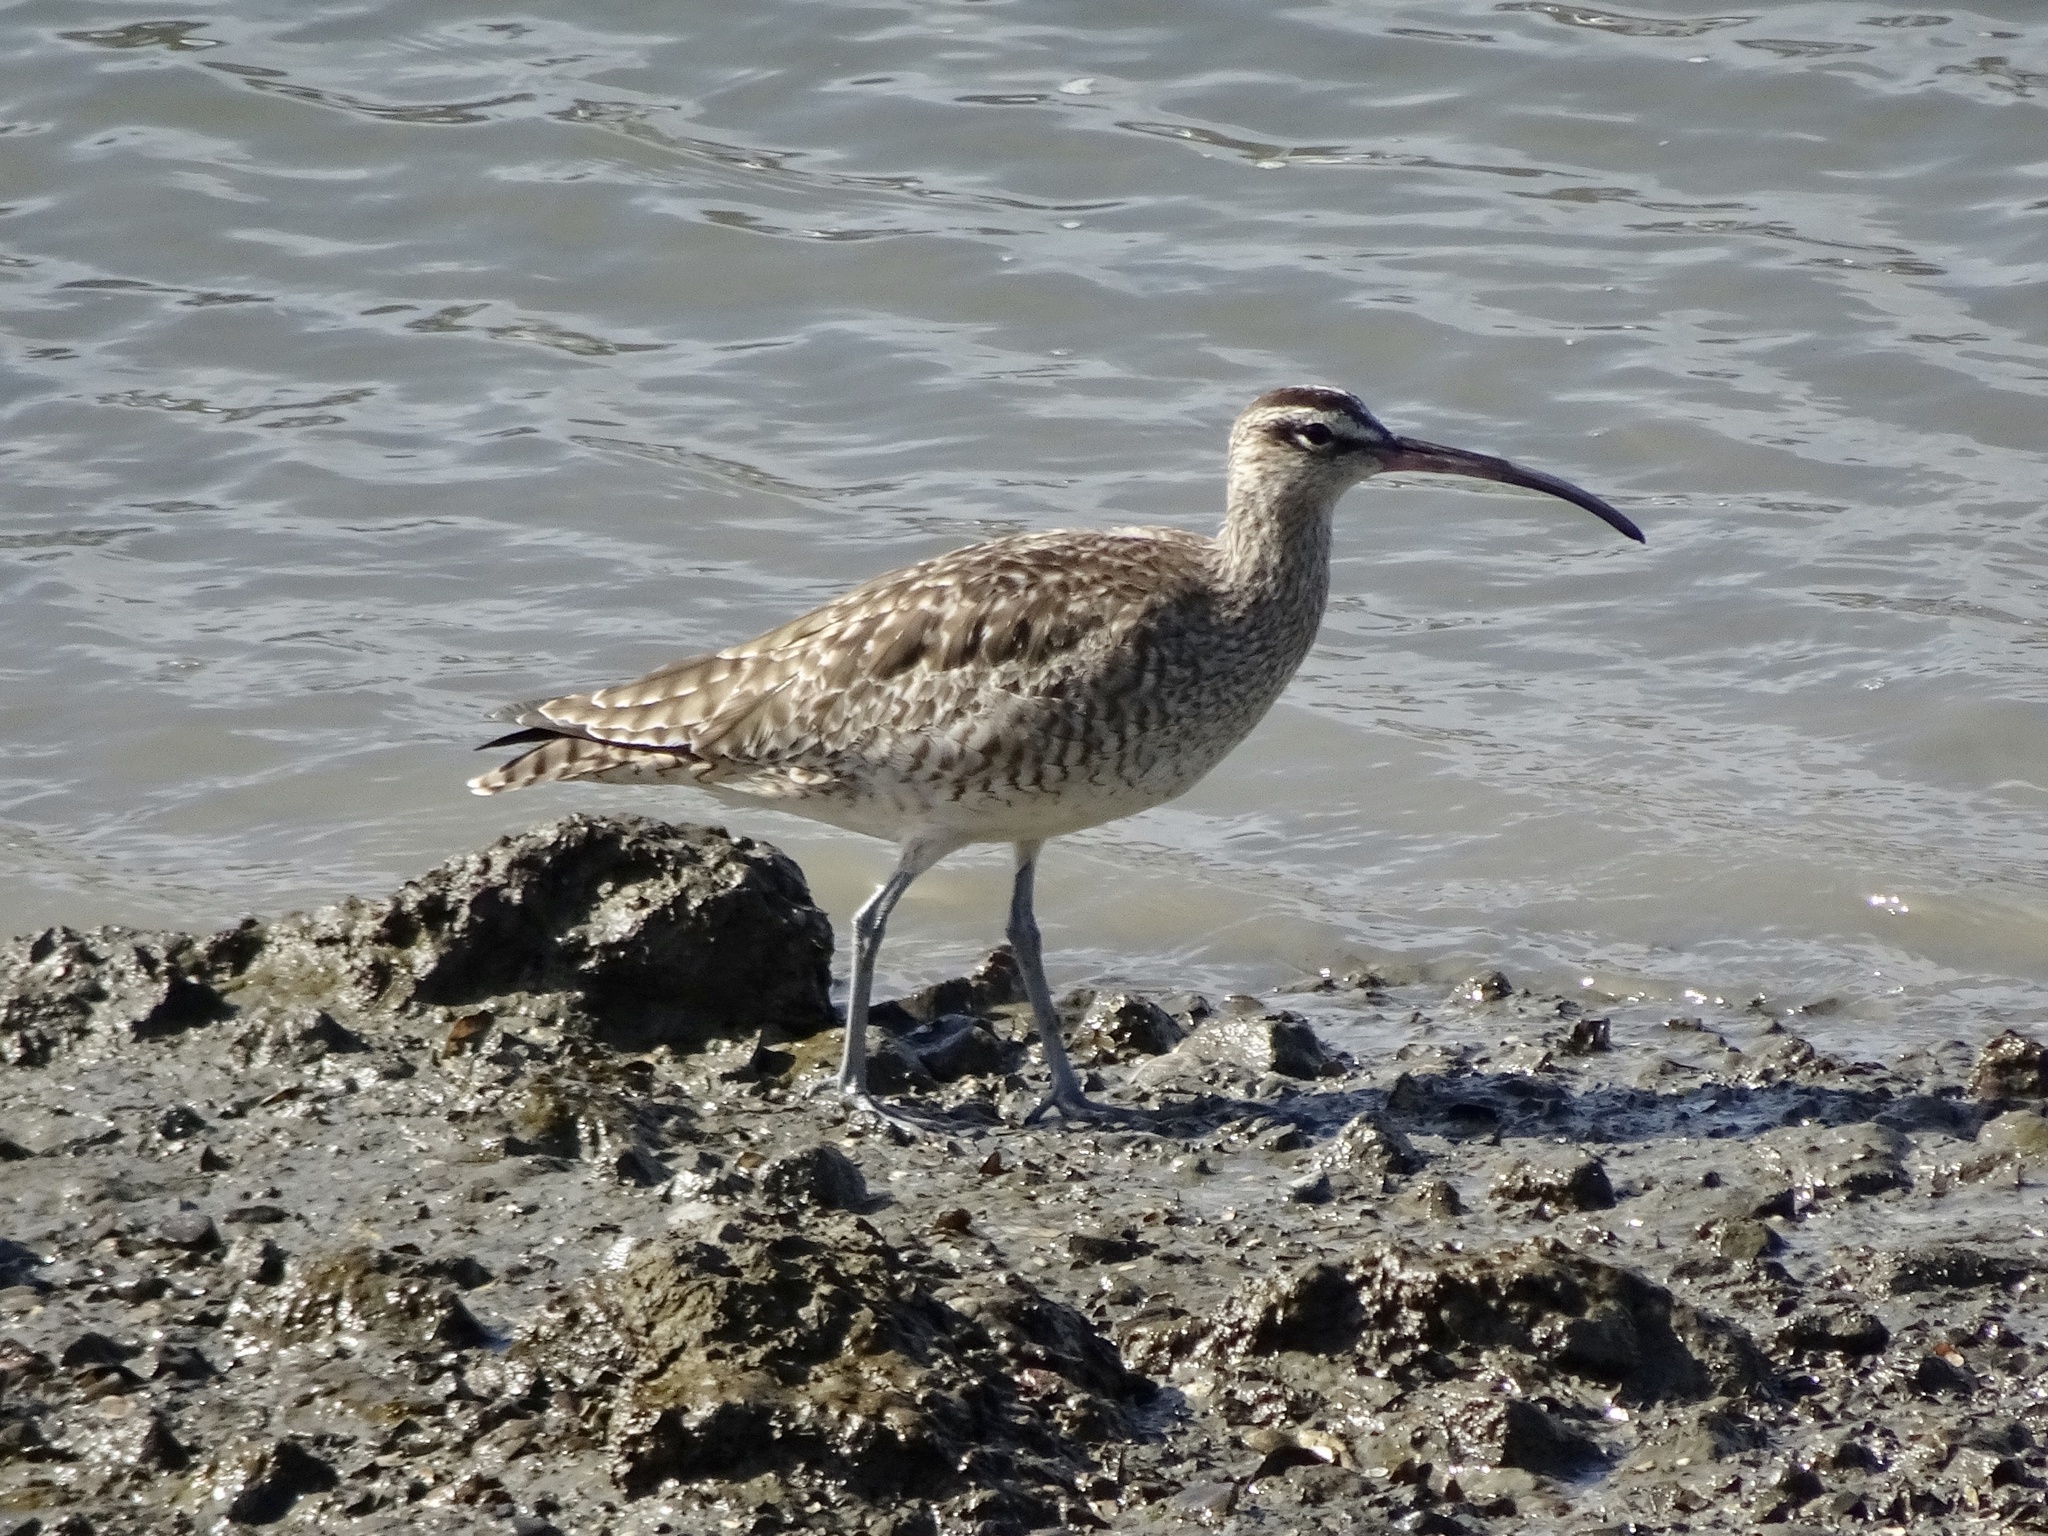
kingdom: Animalia
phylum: Chordata
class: Aves
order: Charadriiformes
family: Scolopacidae
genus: Numenius
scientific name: Numenius phaeopus
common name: Whimbrel
